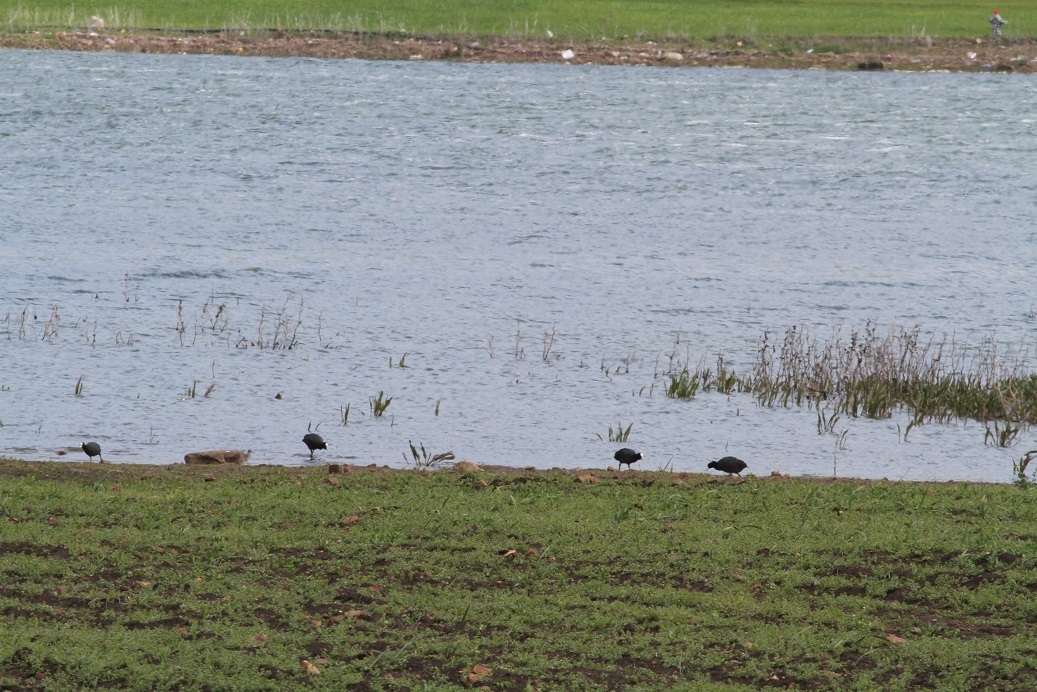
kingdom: Animalia
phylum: Chordata
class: Aves
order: Gruiformes
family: Rallidae
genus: Fulica
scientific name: Fulica atra
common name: Eurasian coot
